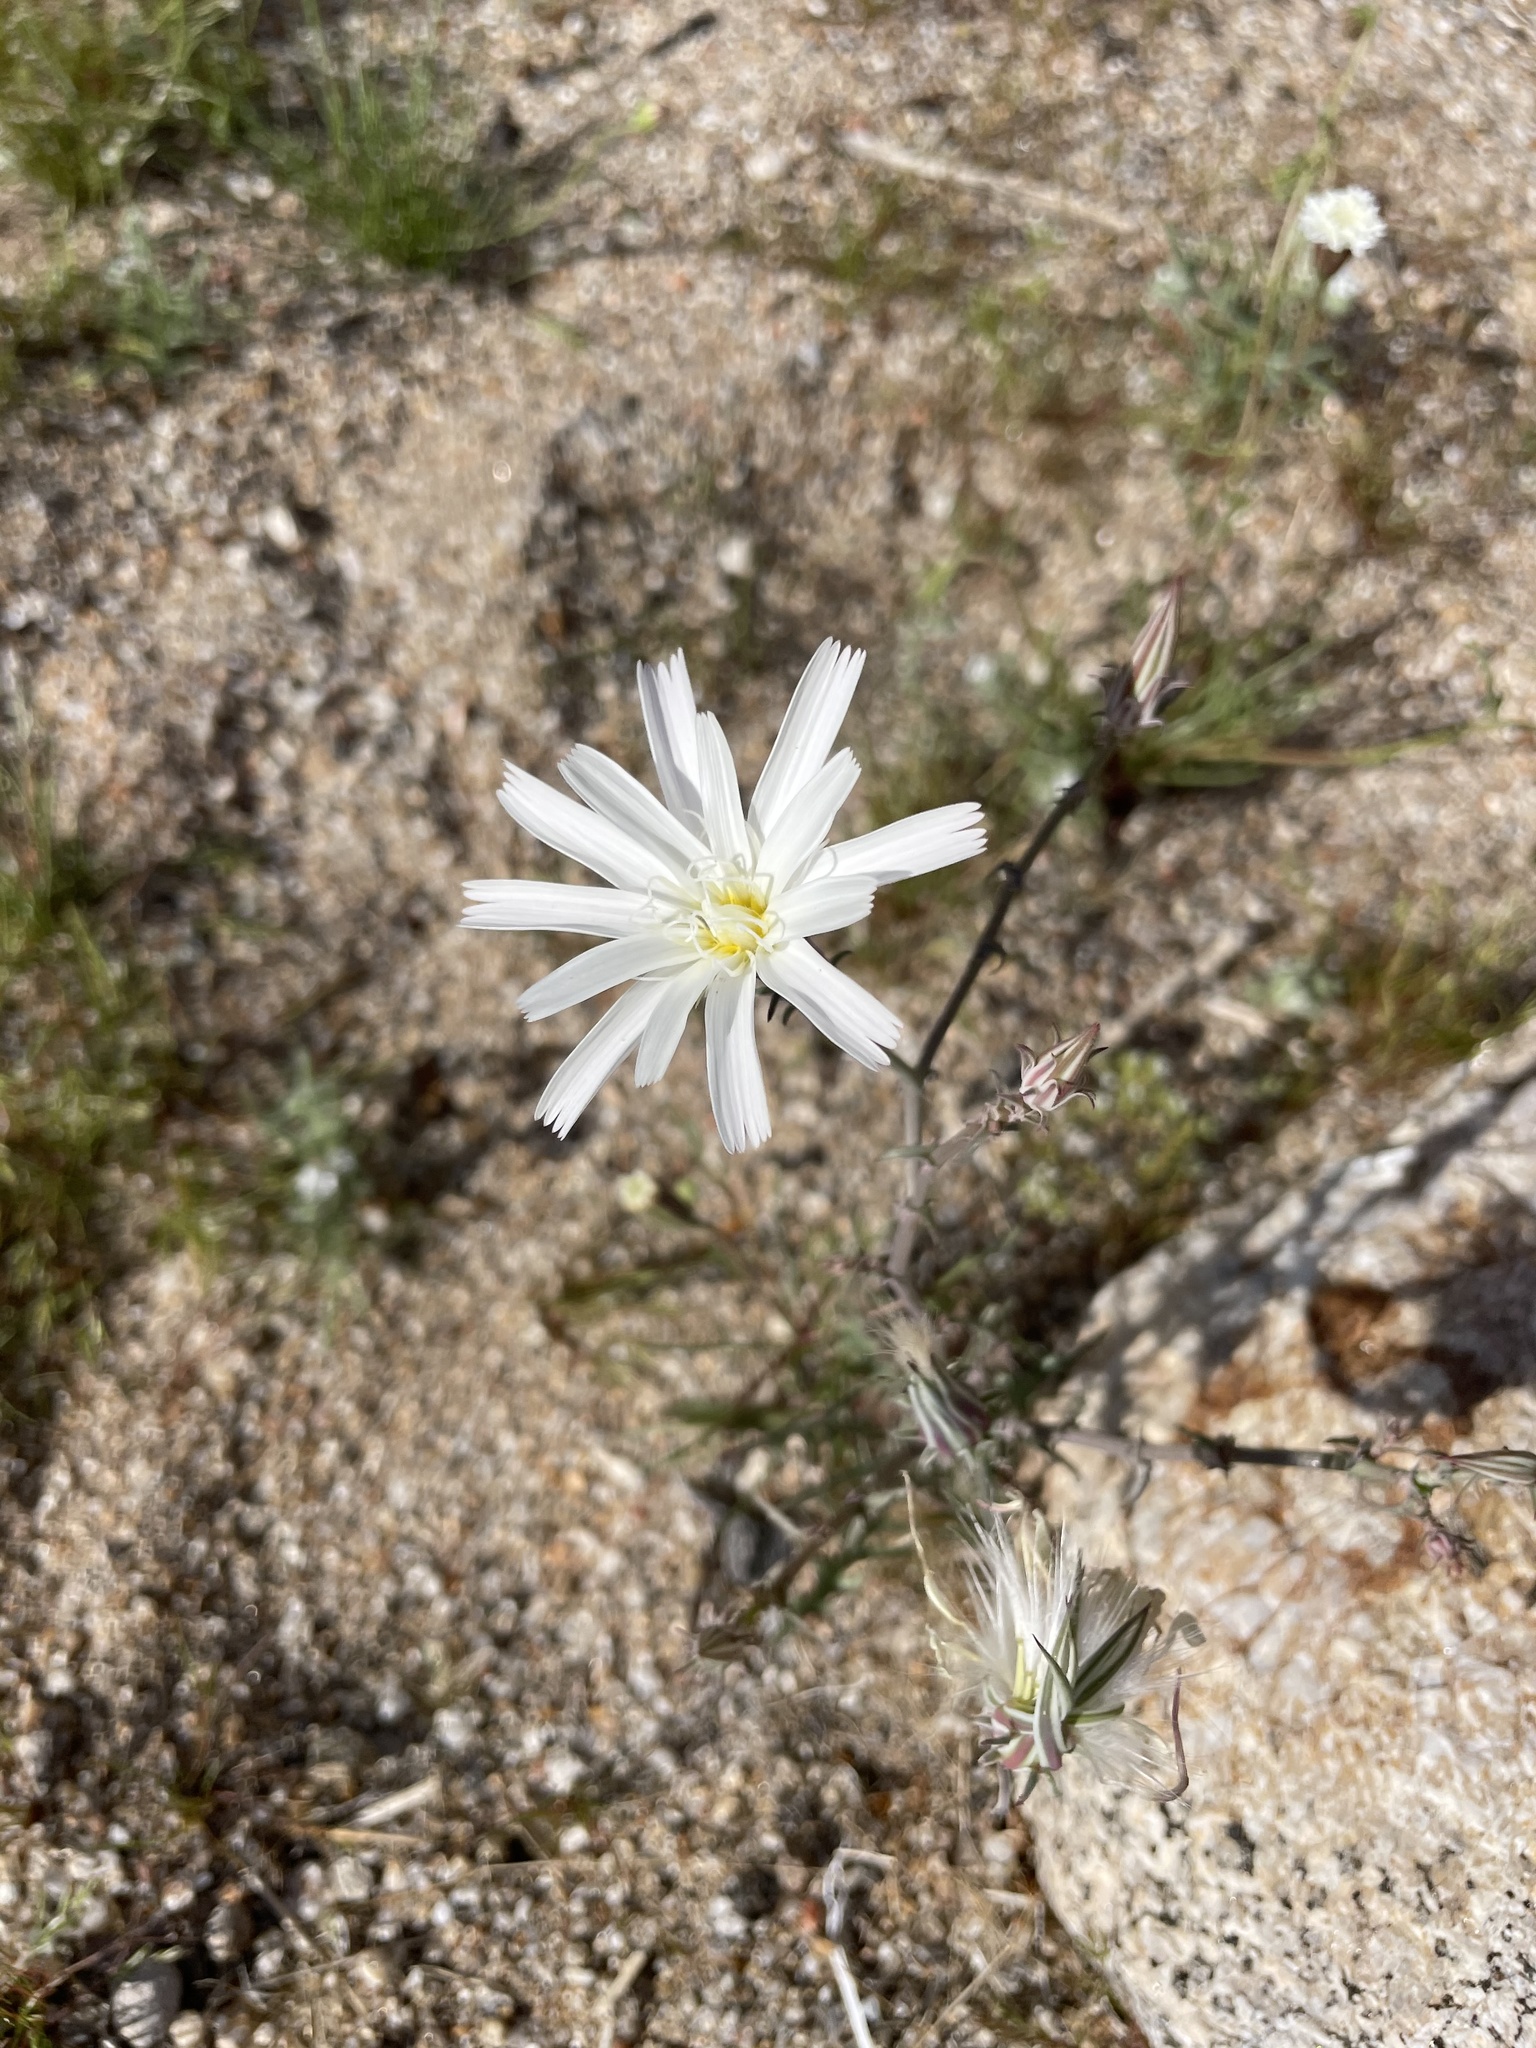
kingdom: Plantae
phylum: Tracheophyta
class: Magnoliopsida
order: Asterales
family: Asteraceae
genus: Rafinesquia
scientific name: Rafinesquia neomexicana
